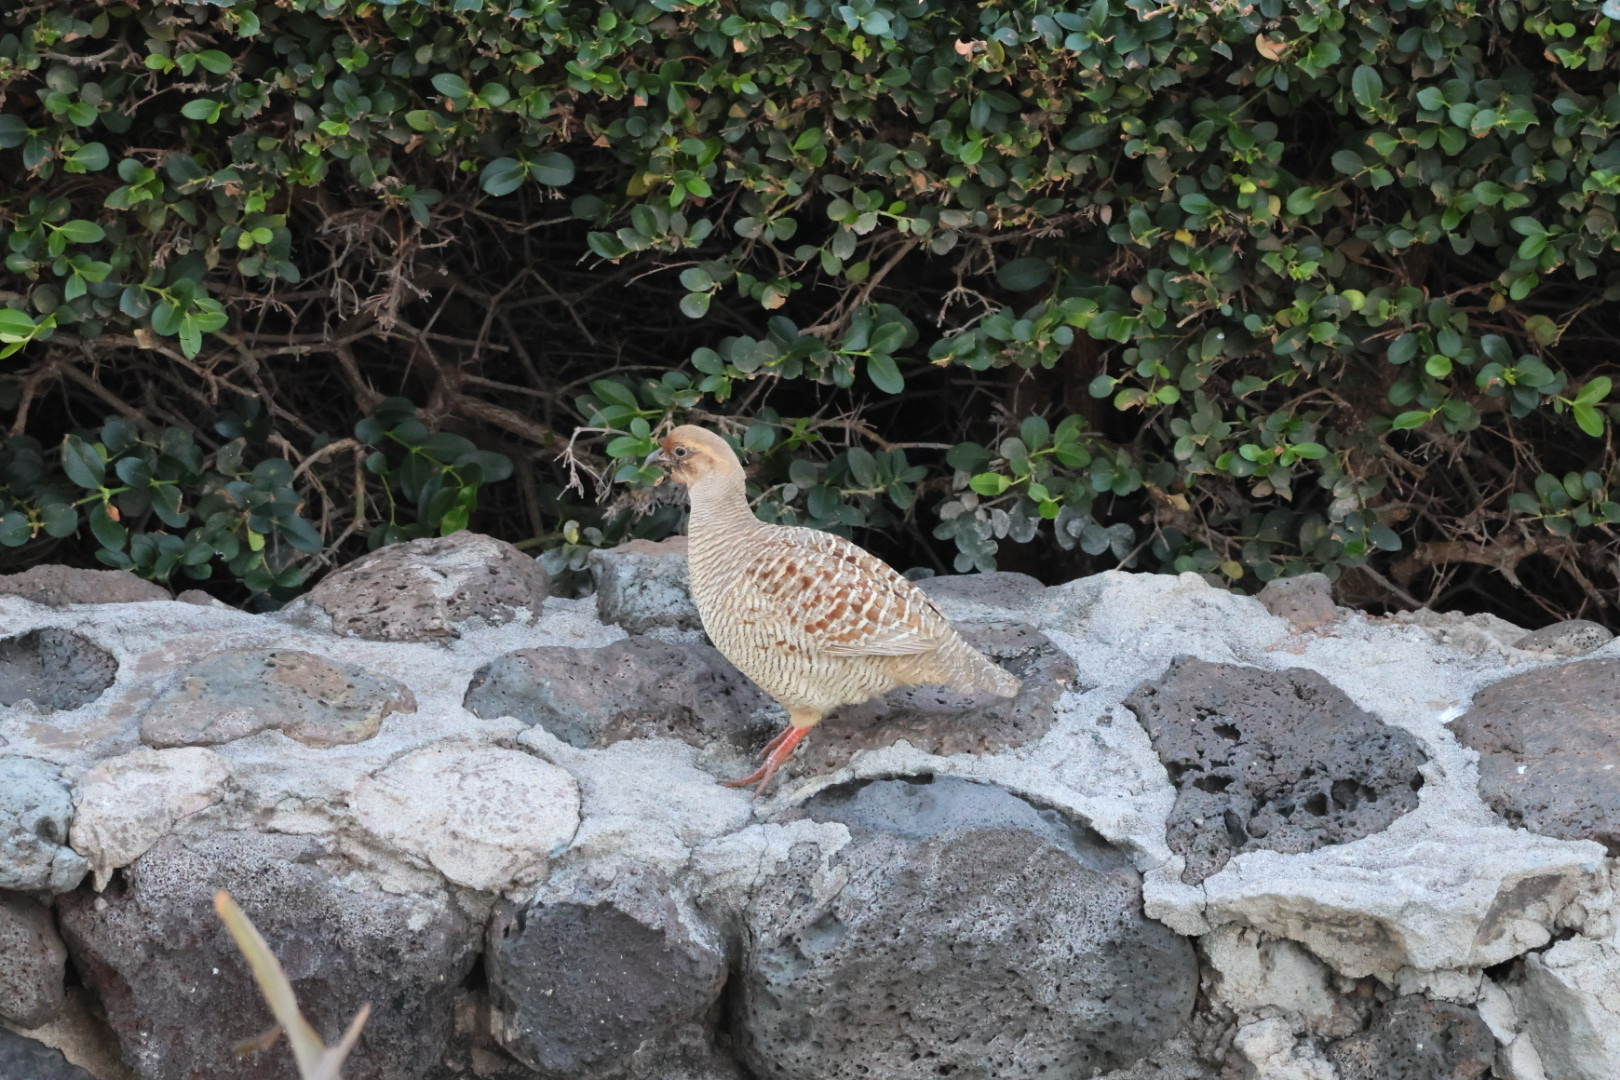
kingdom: Animalia
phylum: Chordata
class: Aves
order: Galliformes
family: Phasianidae
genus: Ortygornis
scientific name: Ortygornis pondicerianus
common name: Grey francolin
